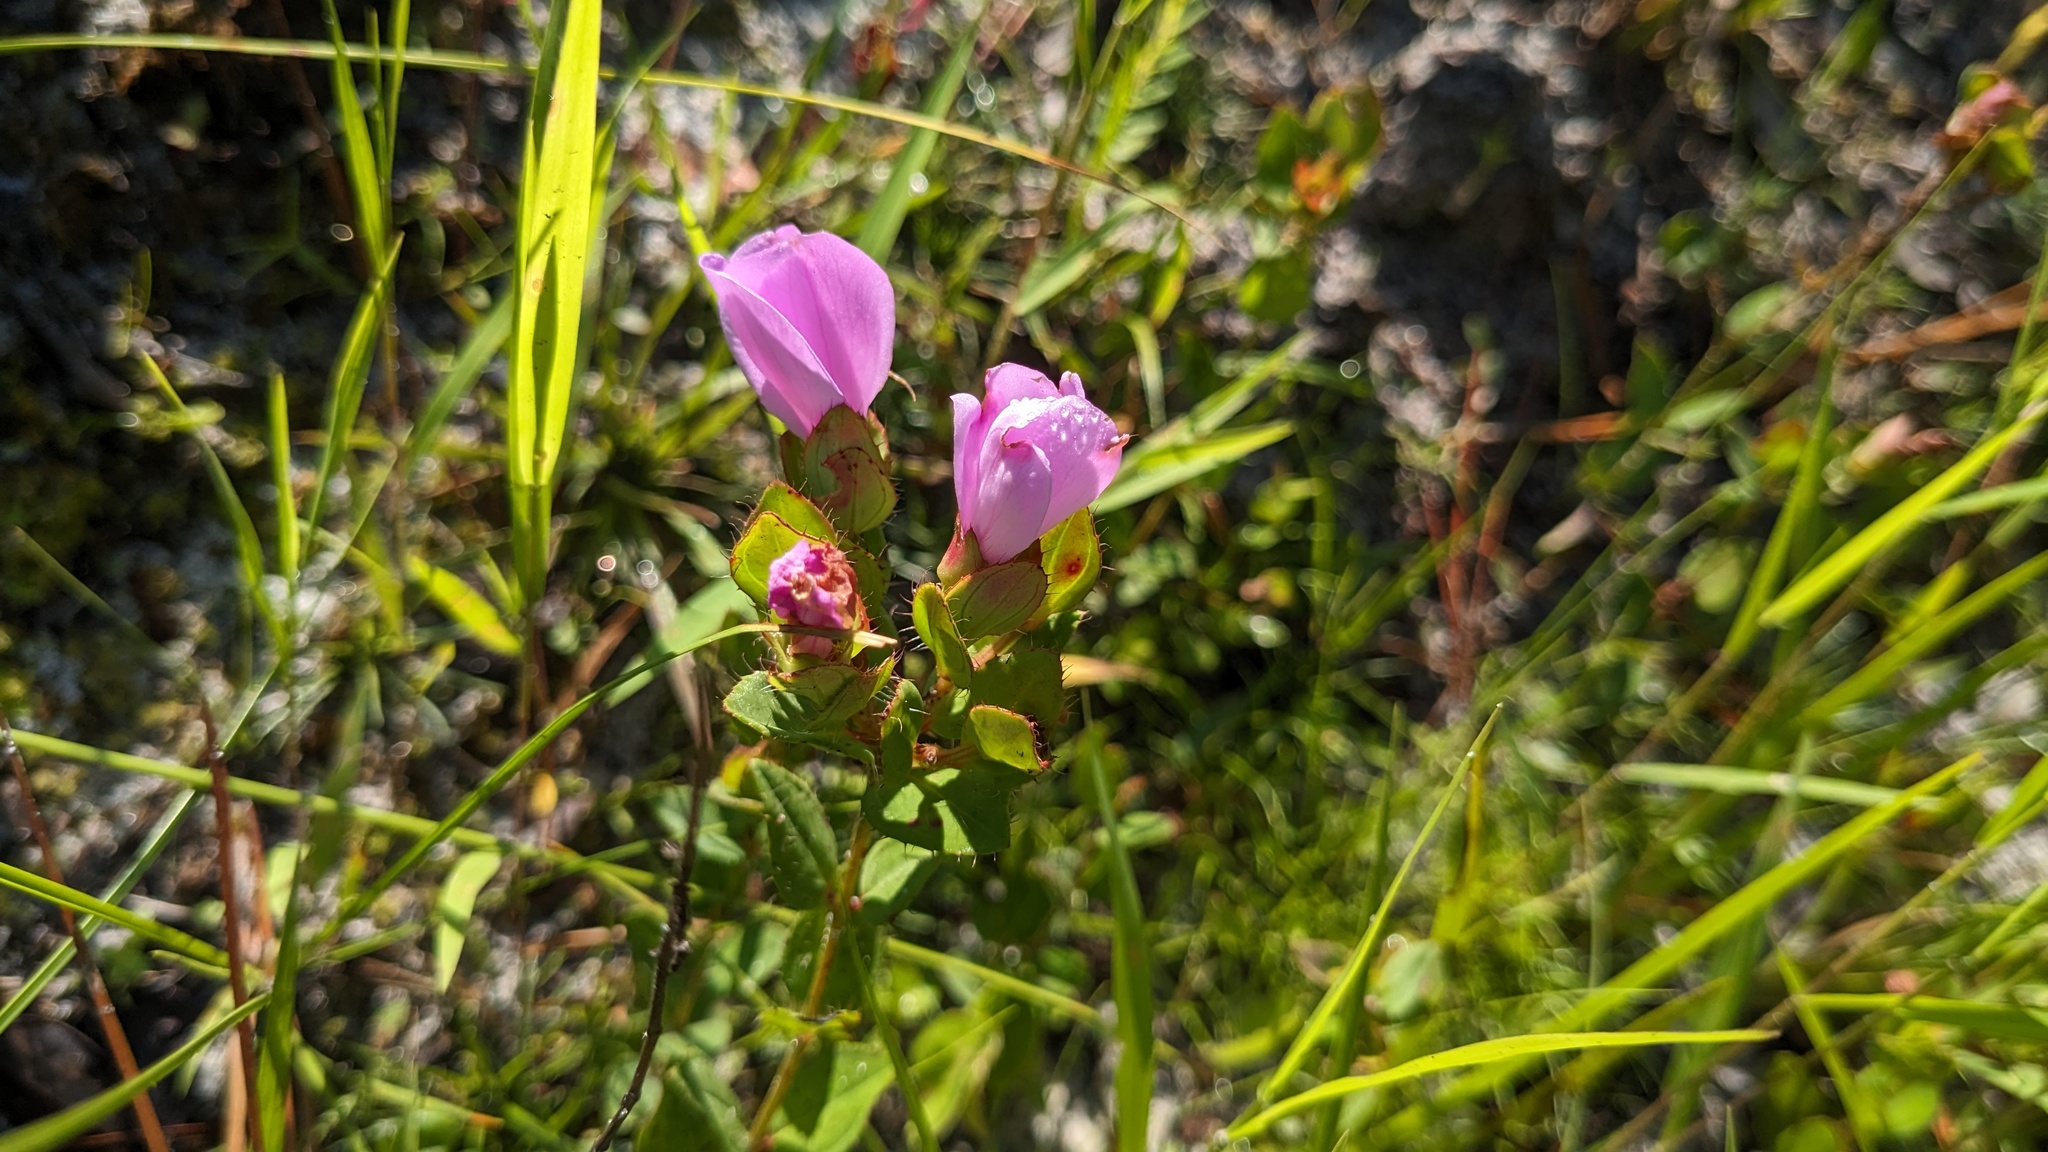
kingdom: Plantae
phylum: Tracheophyta
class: Magnoliopsida
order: Myrtales
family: Melastomataceae
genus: Rhexia
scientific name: Rhexia petiolata
